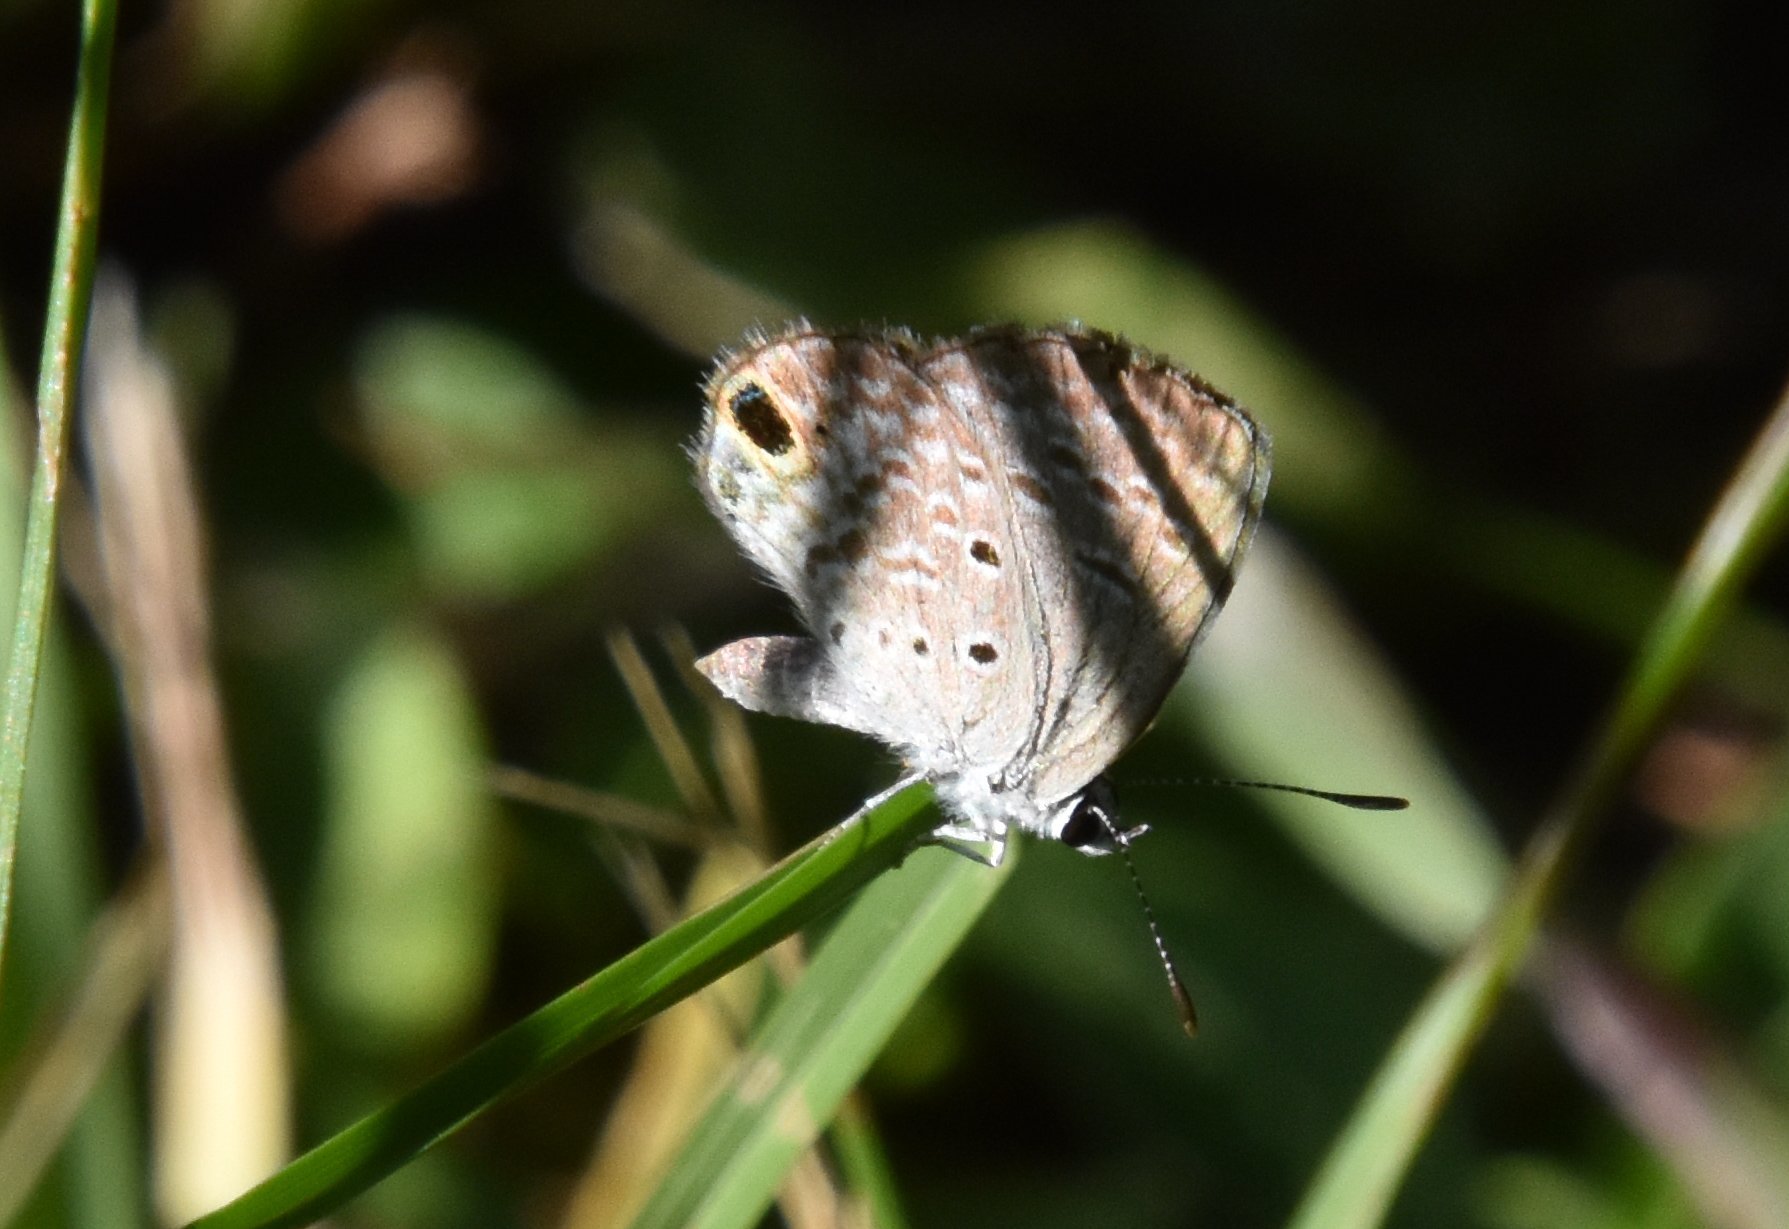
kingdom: Animalia
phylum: Arthropoda
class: Insecta
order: Lepidoptera
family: Lycaenidae
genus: Hemiargus
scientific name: Hemiargus ceraunus
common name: Ceraunus blue
